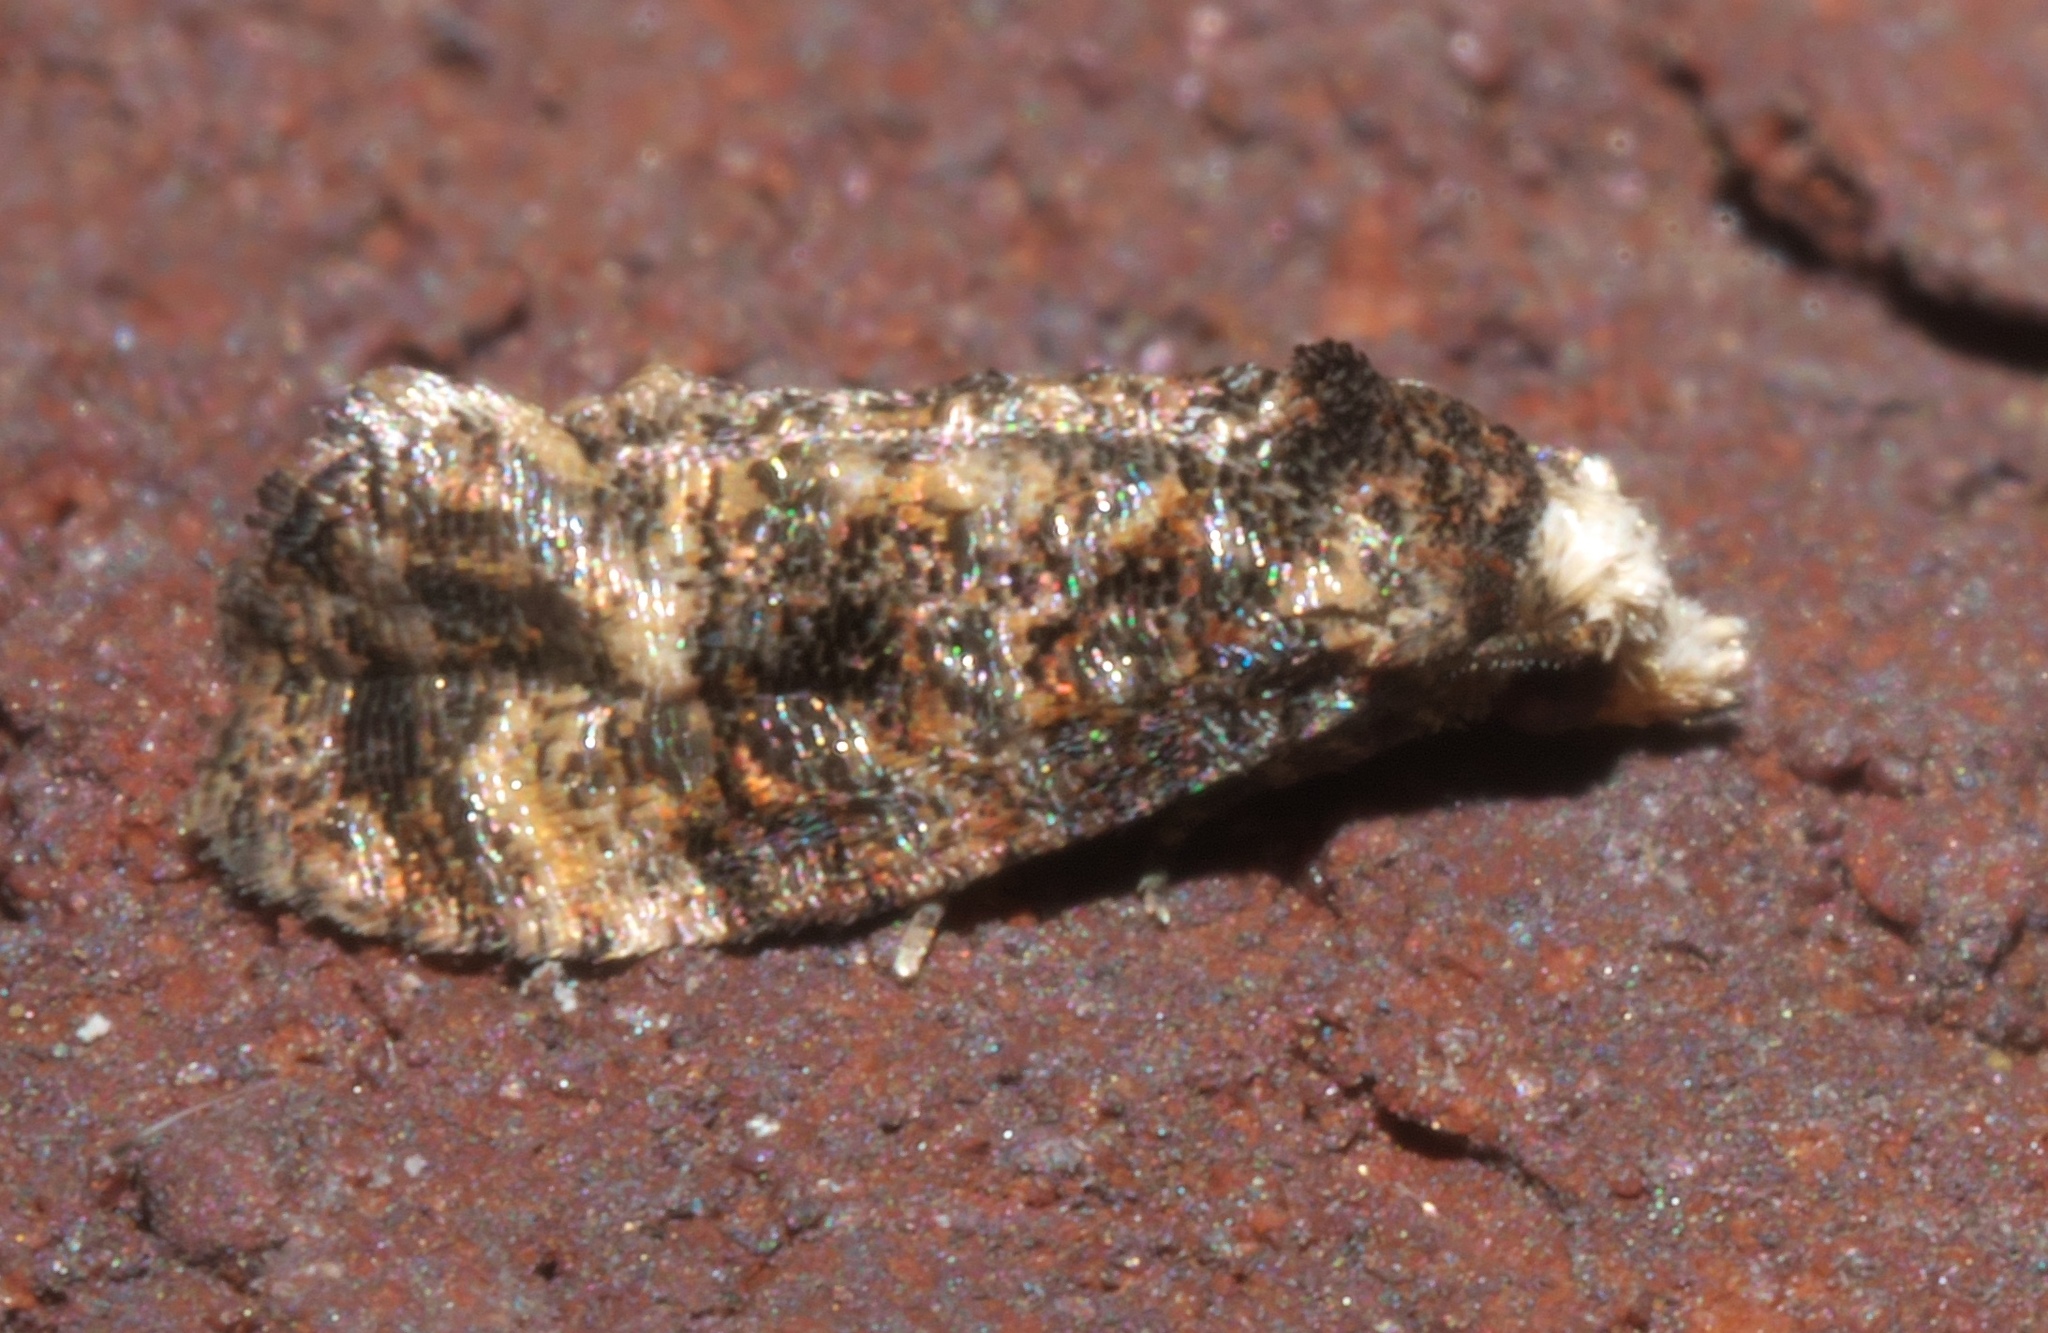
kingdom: Animalia
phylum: Arthropoda
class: Insecta
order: Lepidoptera
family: Tortricidae
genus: Phalonia
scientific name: Phalonia cephalanthana
